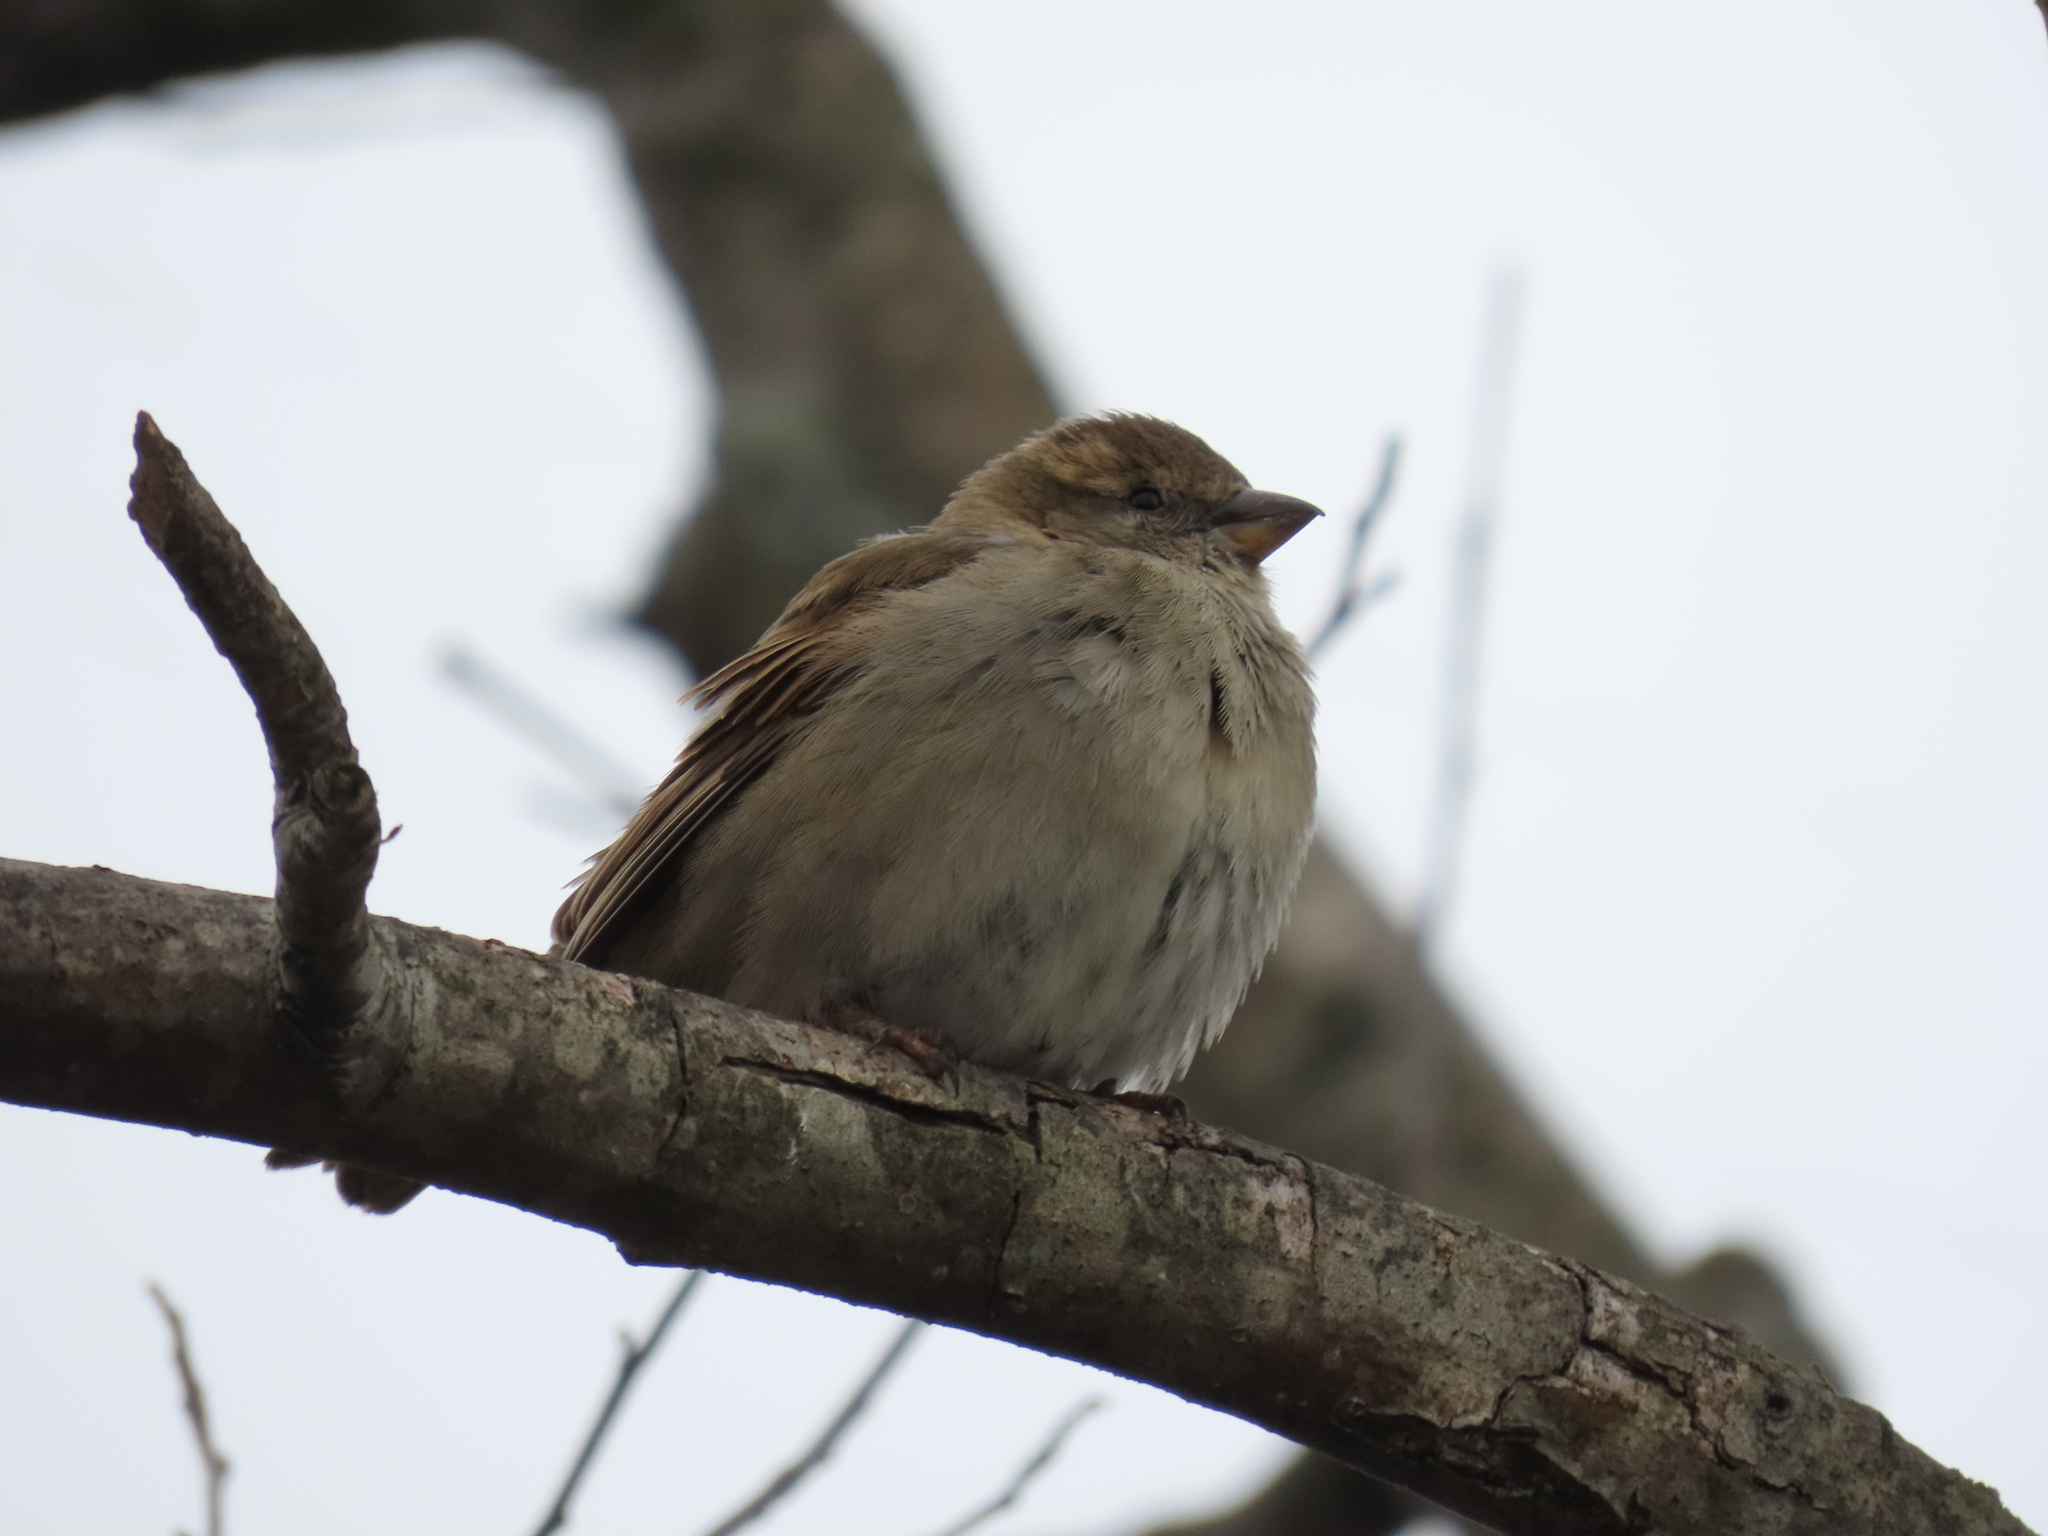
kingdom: Animalia
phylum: Chordata
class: Aves
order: Passeriformes
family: Passeridae
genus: Passer
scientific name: Passer domesticus
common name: House sparrow
